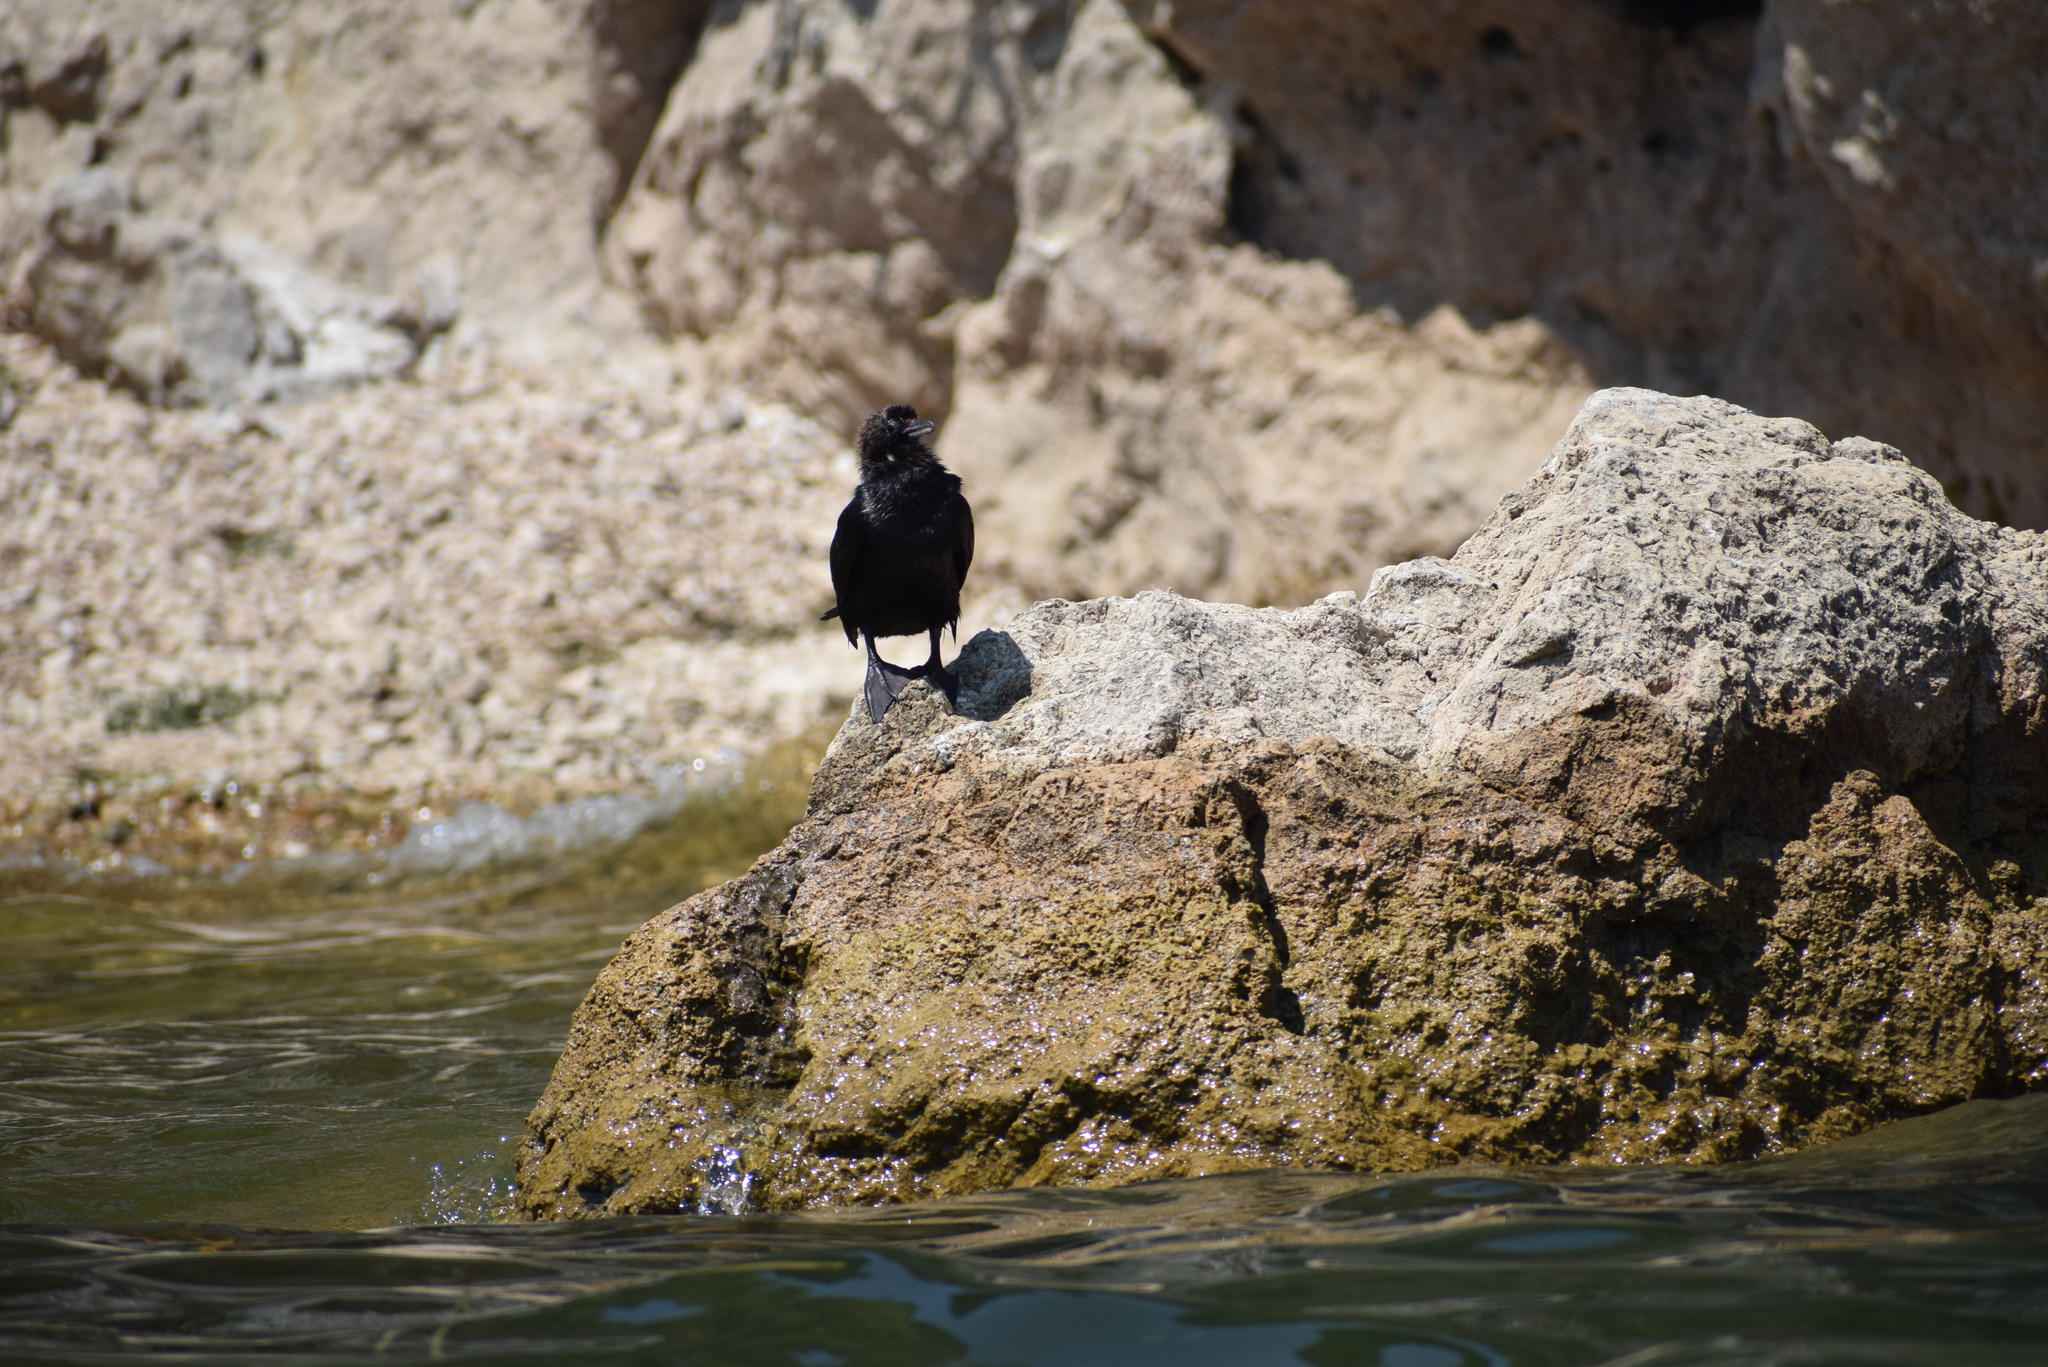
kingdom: Animalia
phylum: Chordata
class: Aves
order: Suliformes
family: Phalacrocoracidae
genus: Microcarbo
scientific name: Microcarbo pygmaeus
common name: Pygmy cormorant
